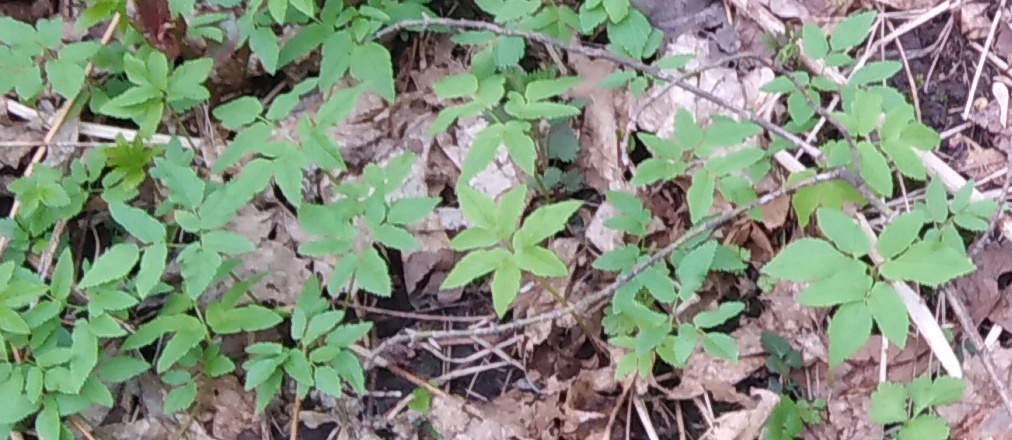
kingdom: Plantae
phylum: Tracheophyta
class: Magnoliopsida
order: Apiales
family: Apiaceae
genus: Aegopodium
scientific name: Aegopodium podagraria
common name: Ground-elder
